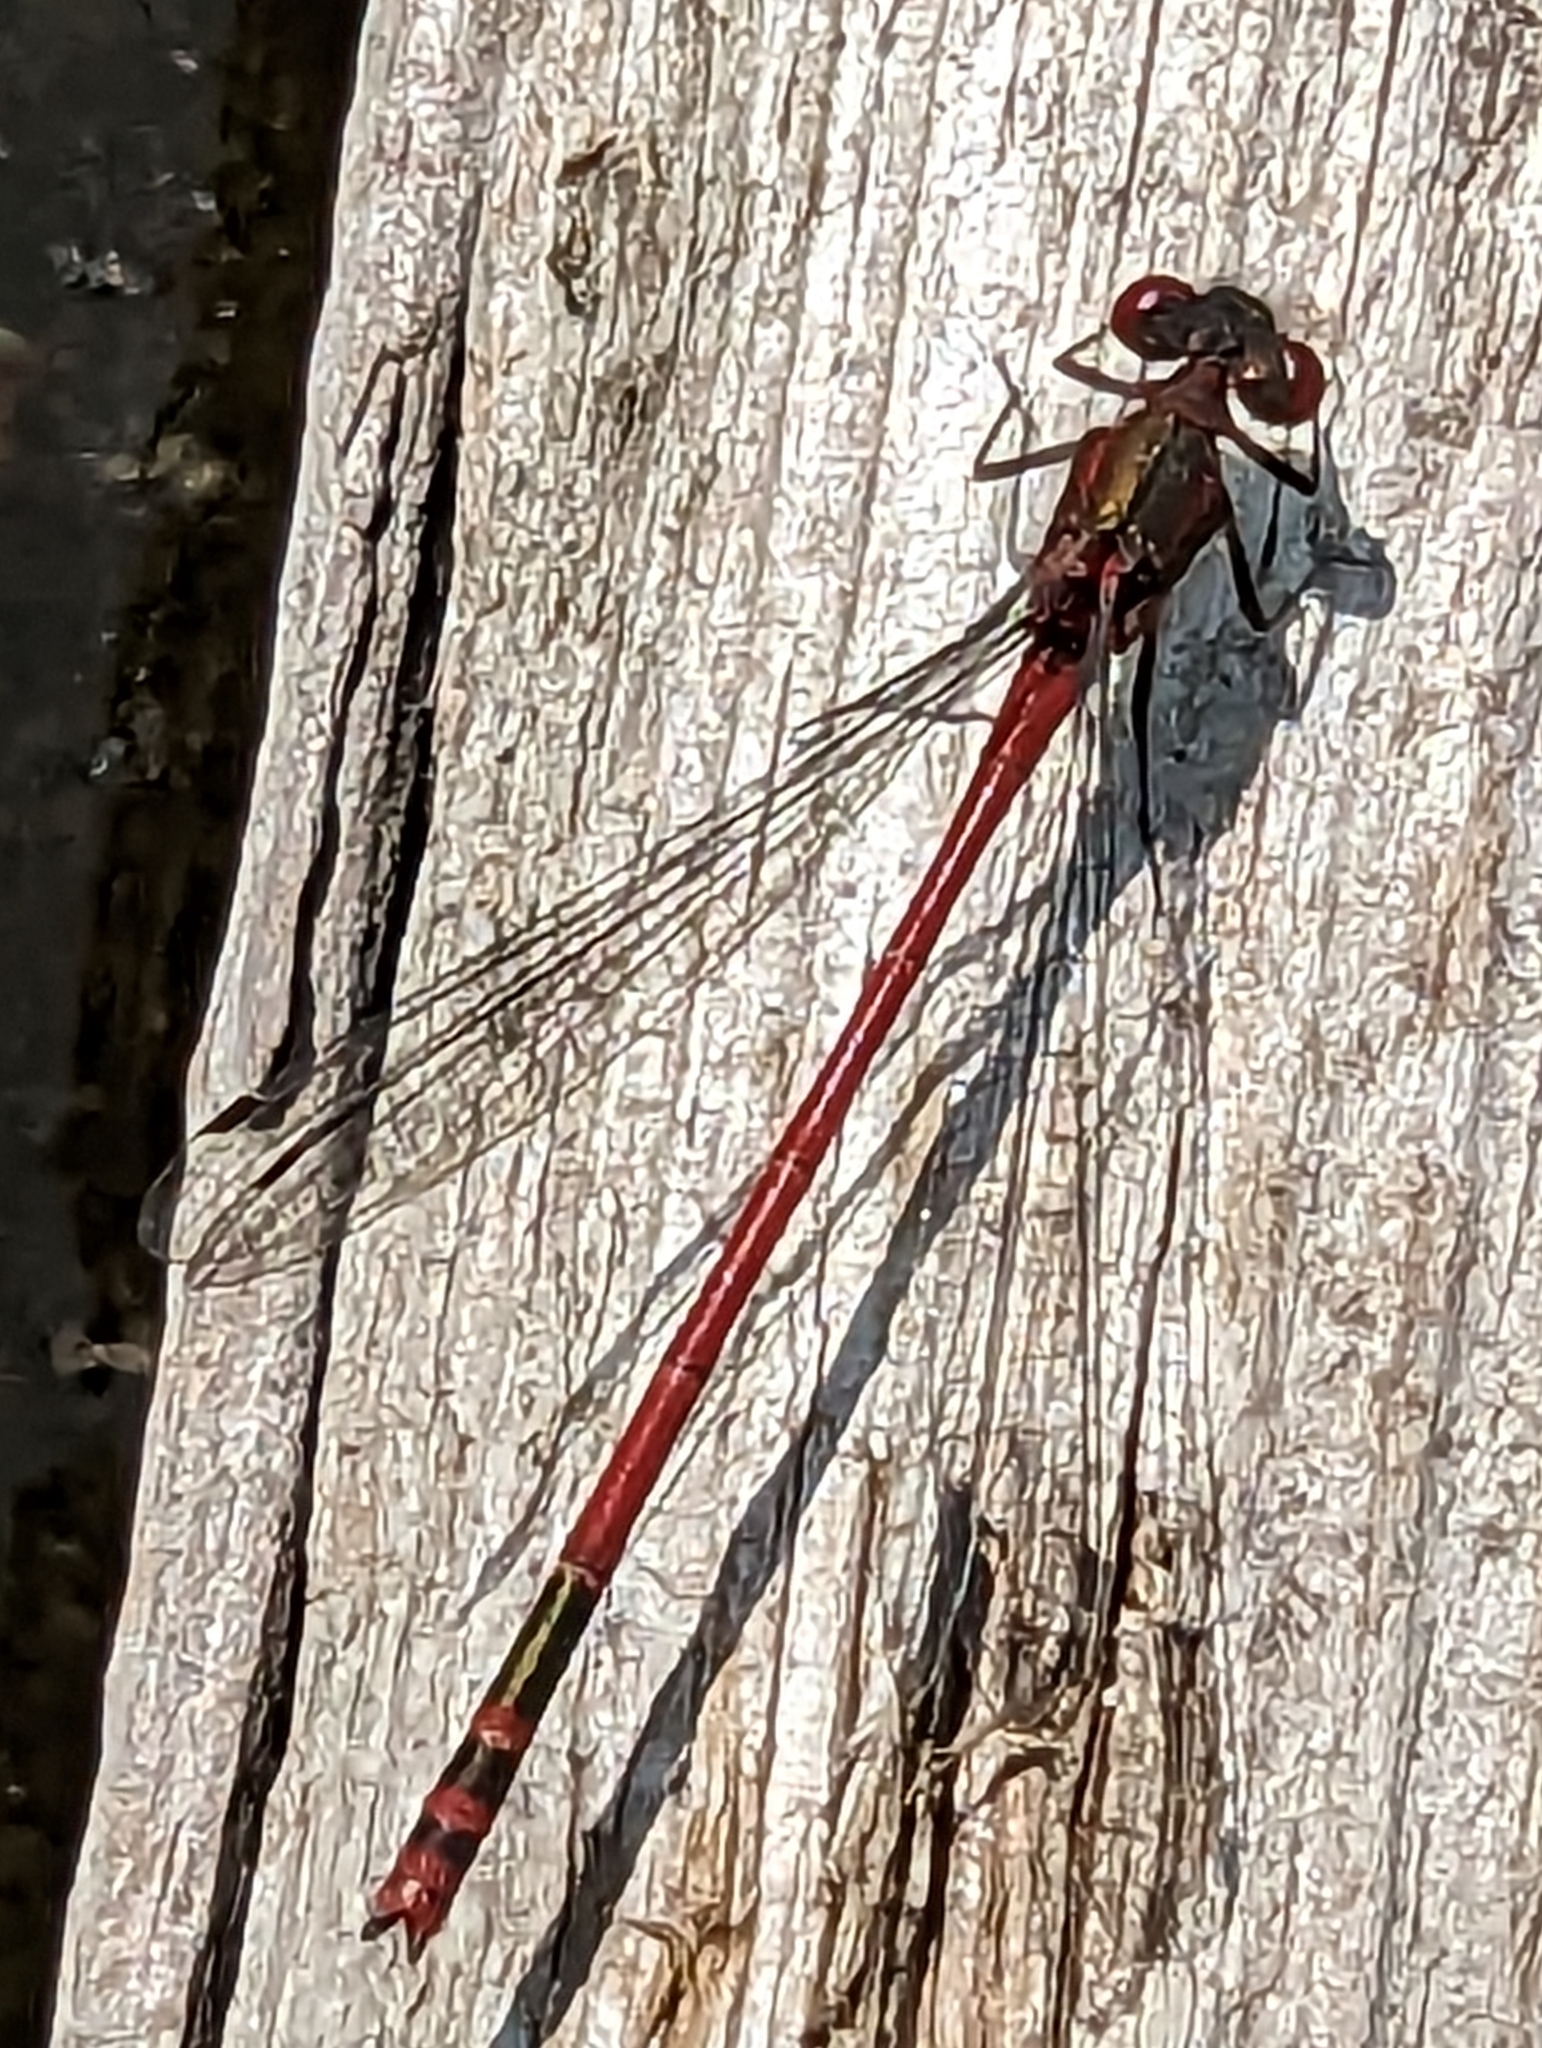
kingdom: Animalia
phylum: Arthropoda
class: Insecta
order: Odonata
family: Coenagrionidae
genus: Pyrrhosoma
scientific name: Pyrrhosoma nymphula
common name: Large red damsel
